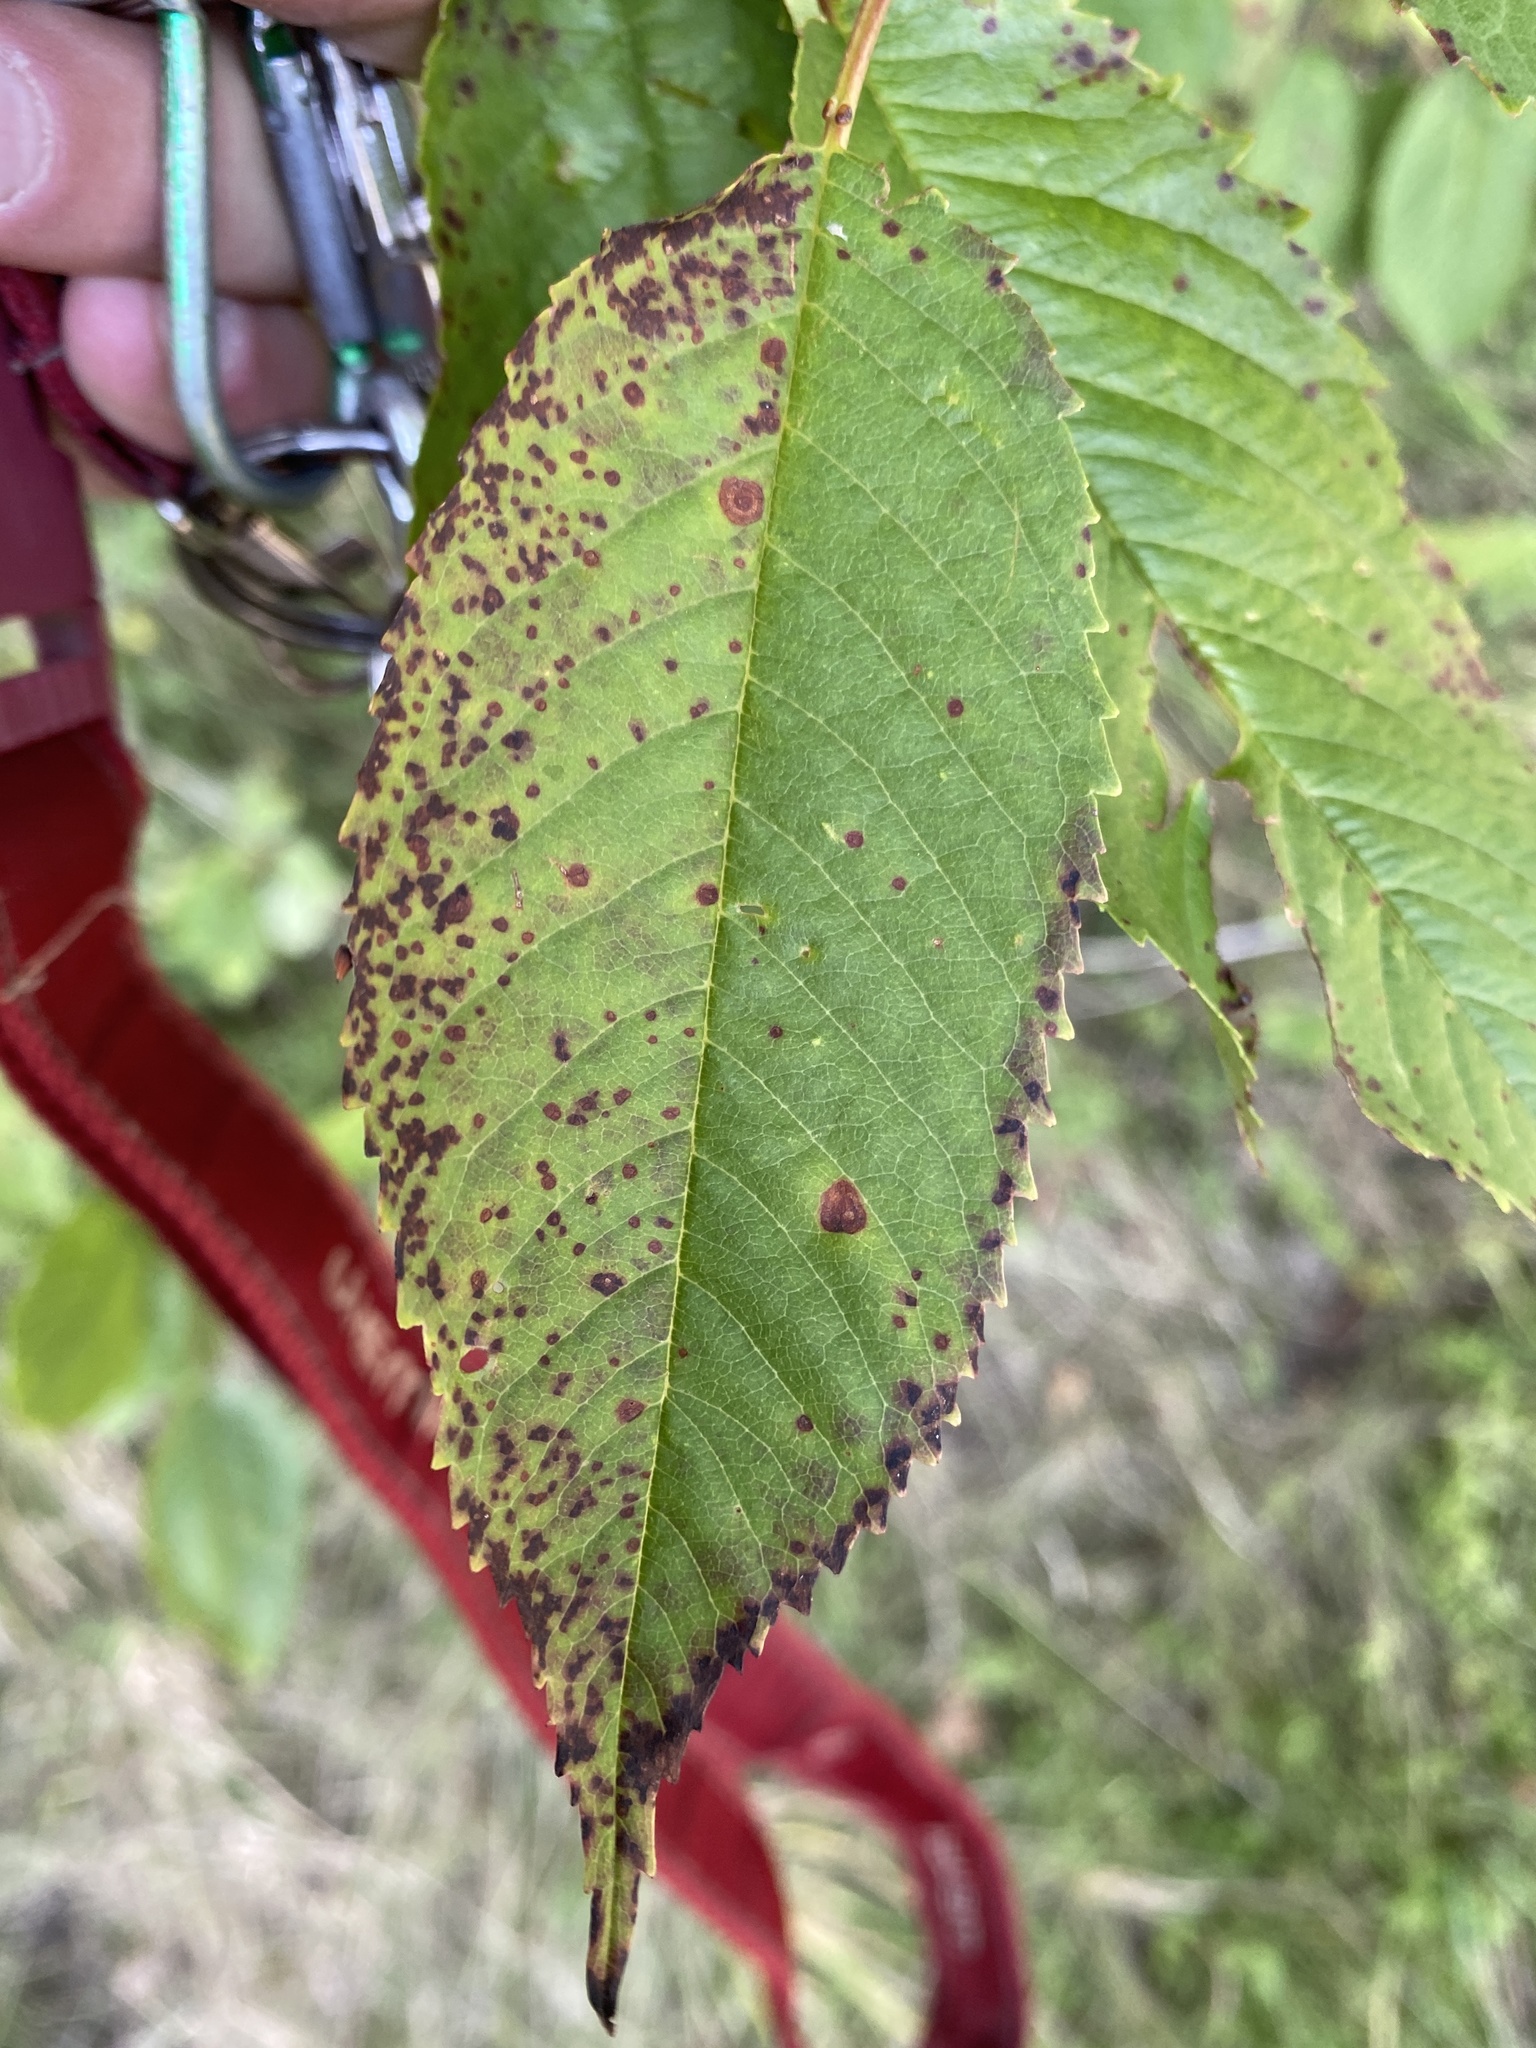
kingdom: Fungi
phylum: Ascomycota
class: Dothideomycetes
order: Mycosphaerellales
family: Mycosphaerellaceae
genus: Stigmina
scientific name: Stigmina carpophila
